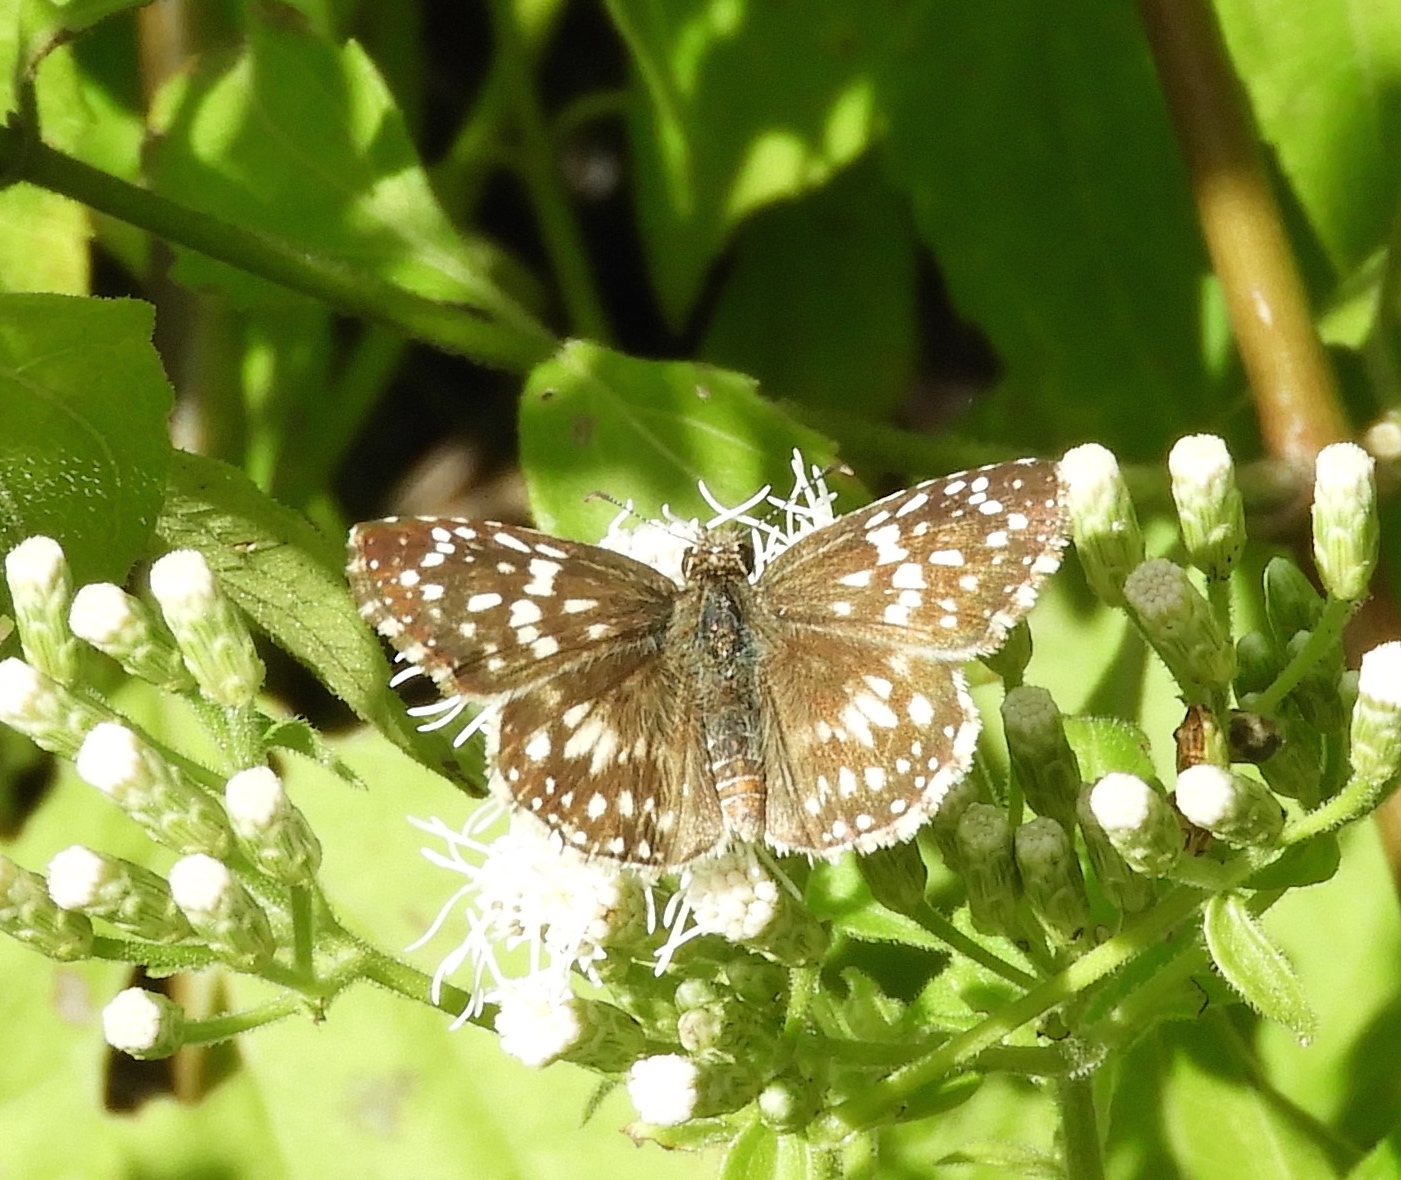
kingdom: Animalia
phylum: Arthropoda
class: Insecta
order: Lepidoptera
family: Hesperiidae
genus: Pyrgus
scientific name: Pyrgus oileus
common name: Tropical checkered-skipper
